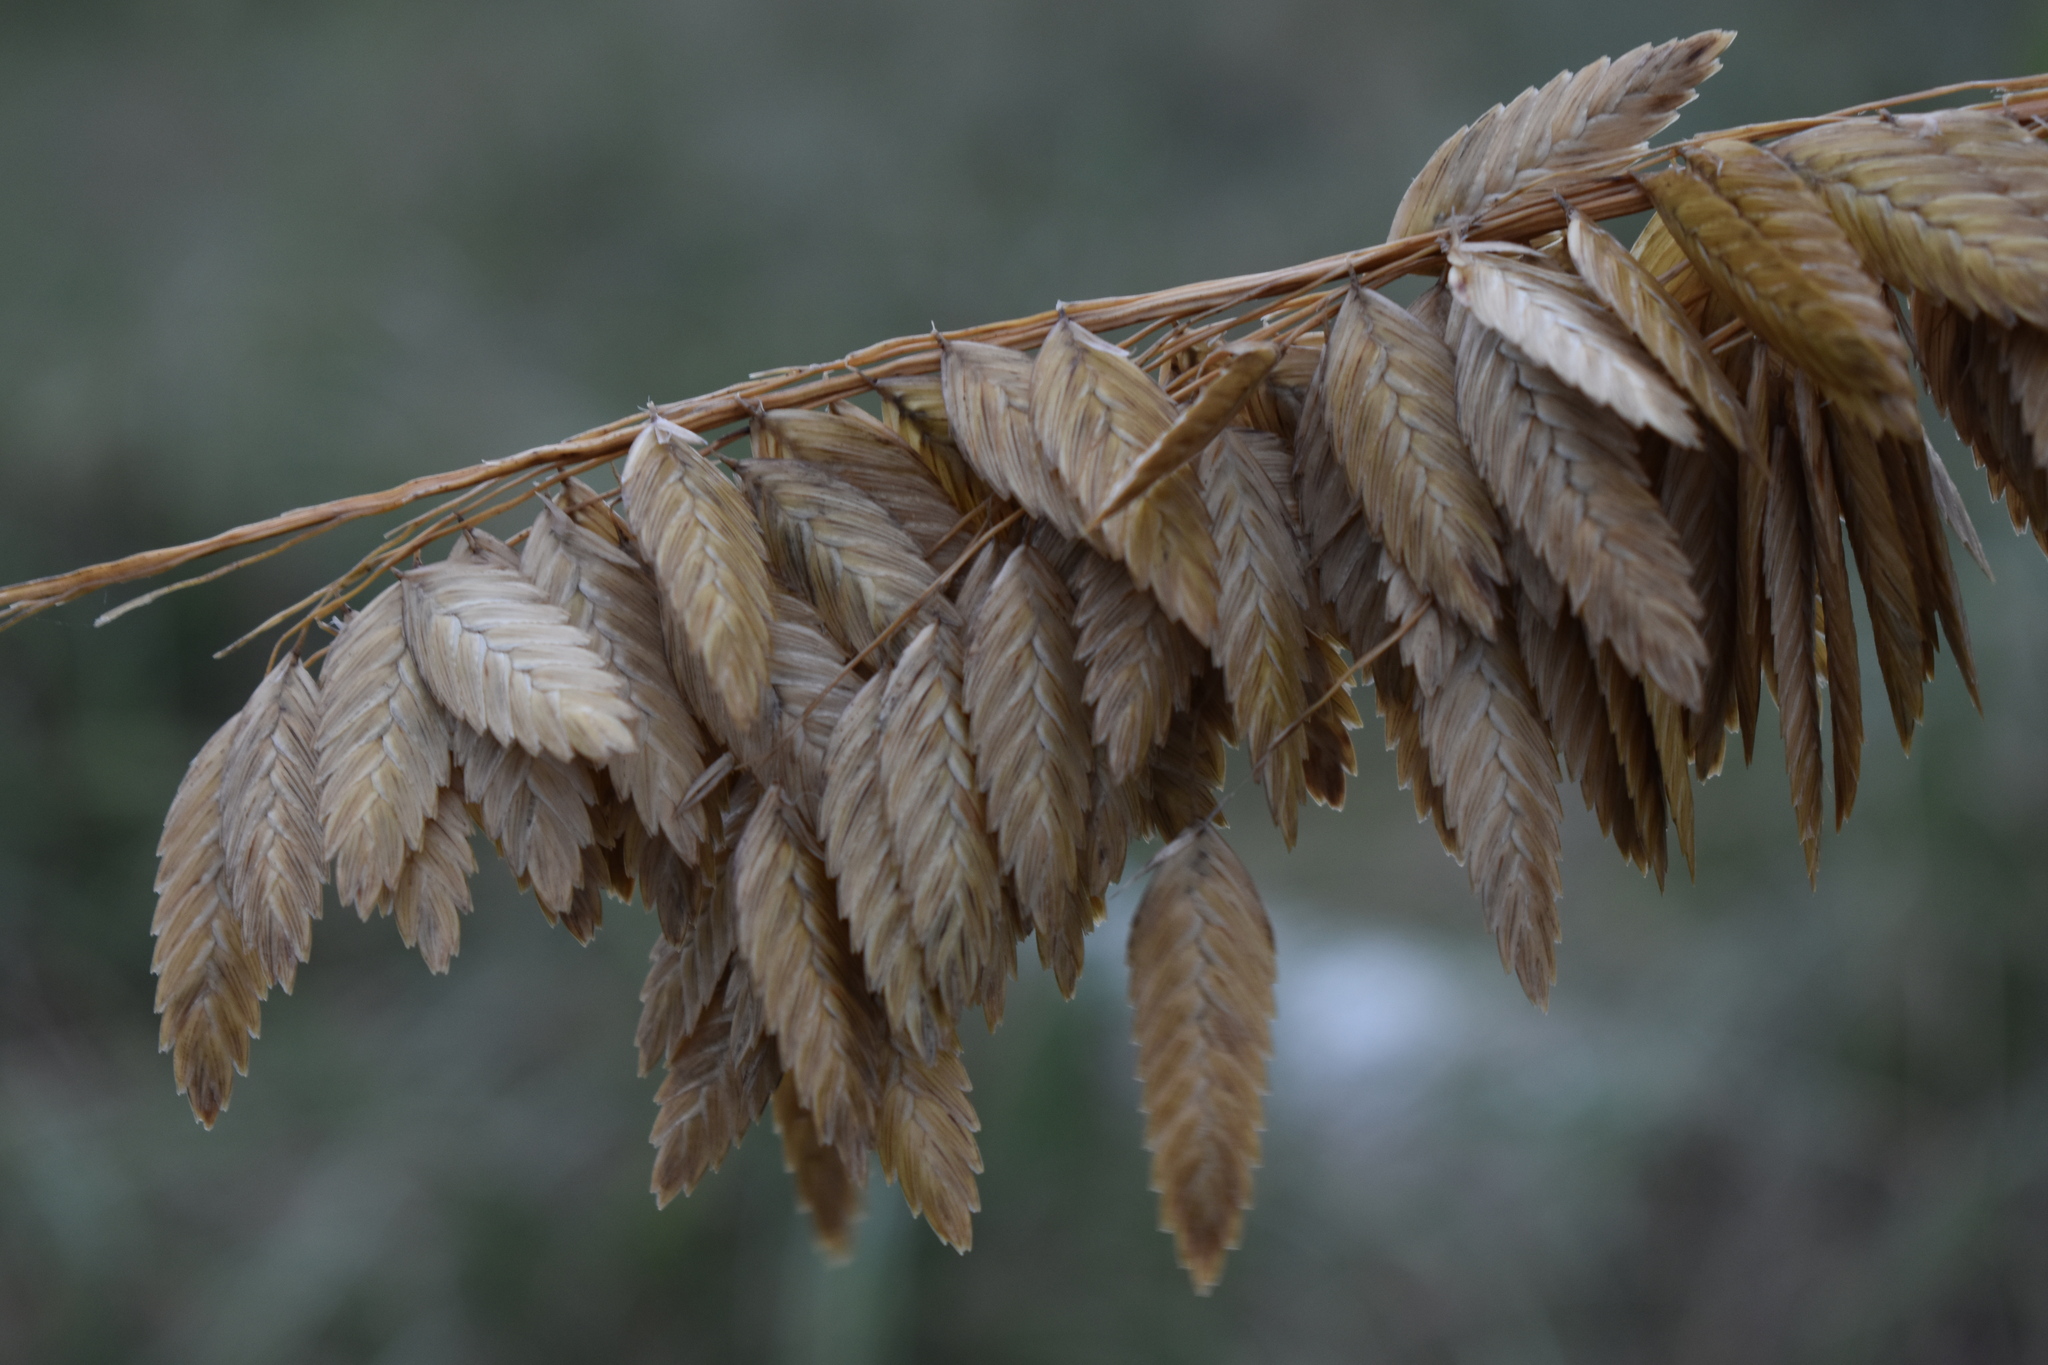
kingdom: Plantae
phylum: Tracheophyta
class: Liliopsida
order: Poales
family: Poaceae
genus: Uniola
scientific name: Uniola paniculata
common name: Seaside-oats
